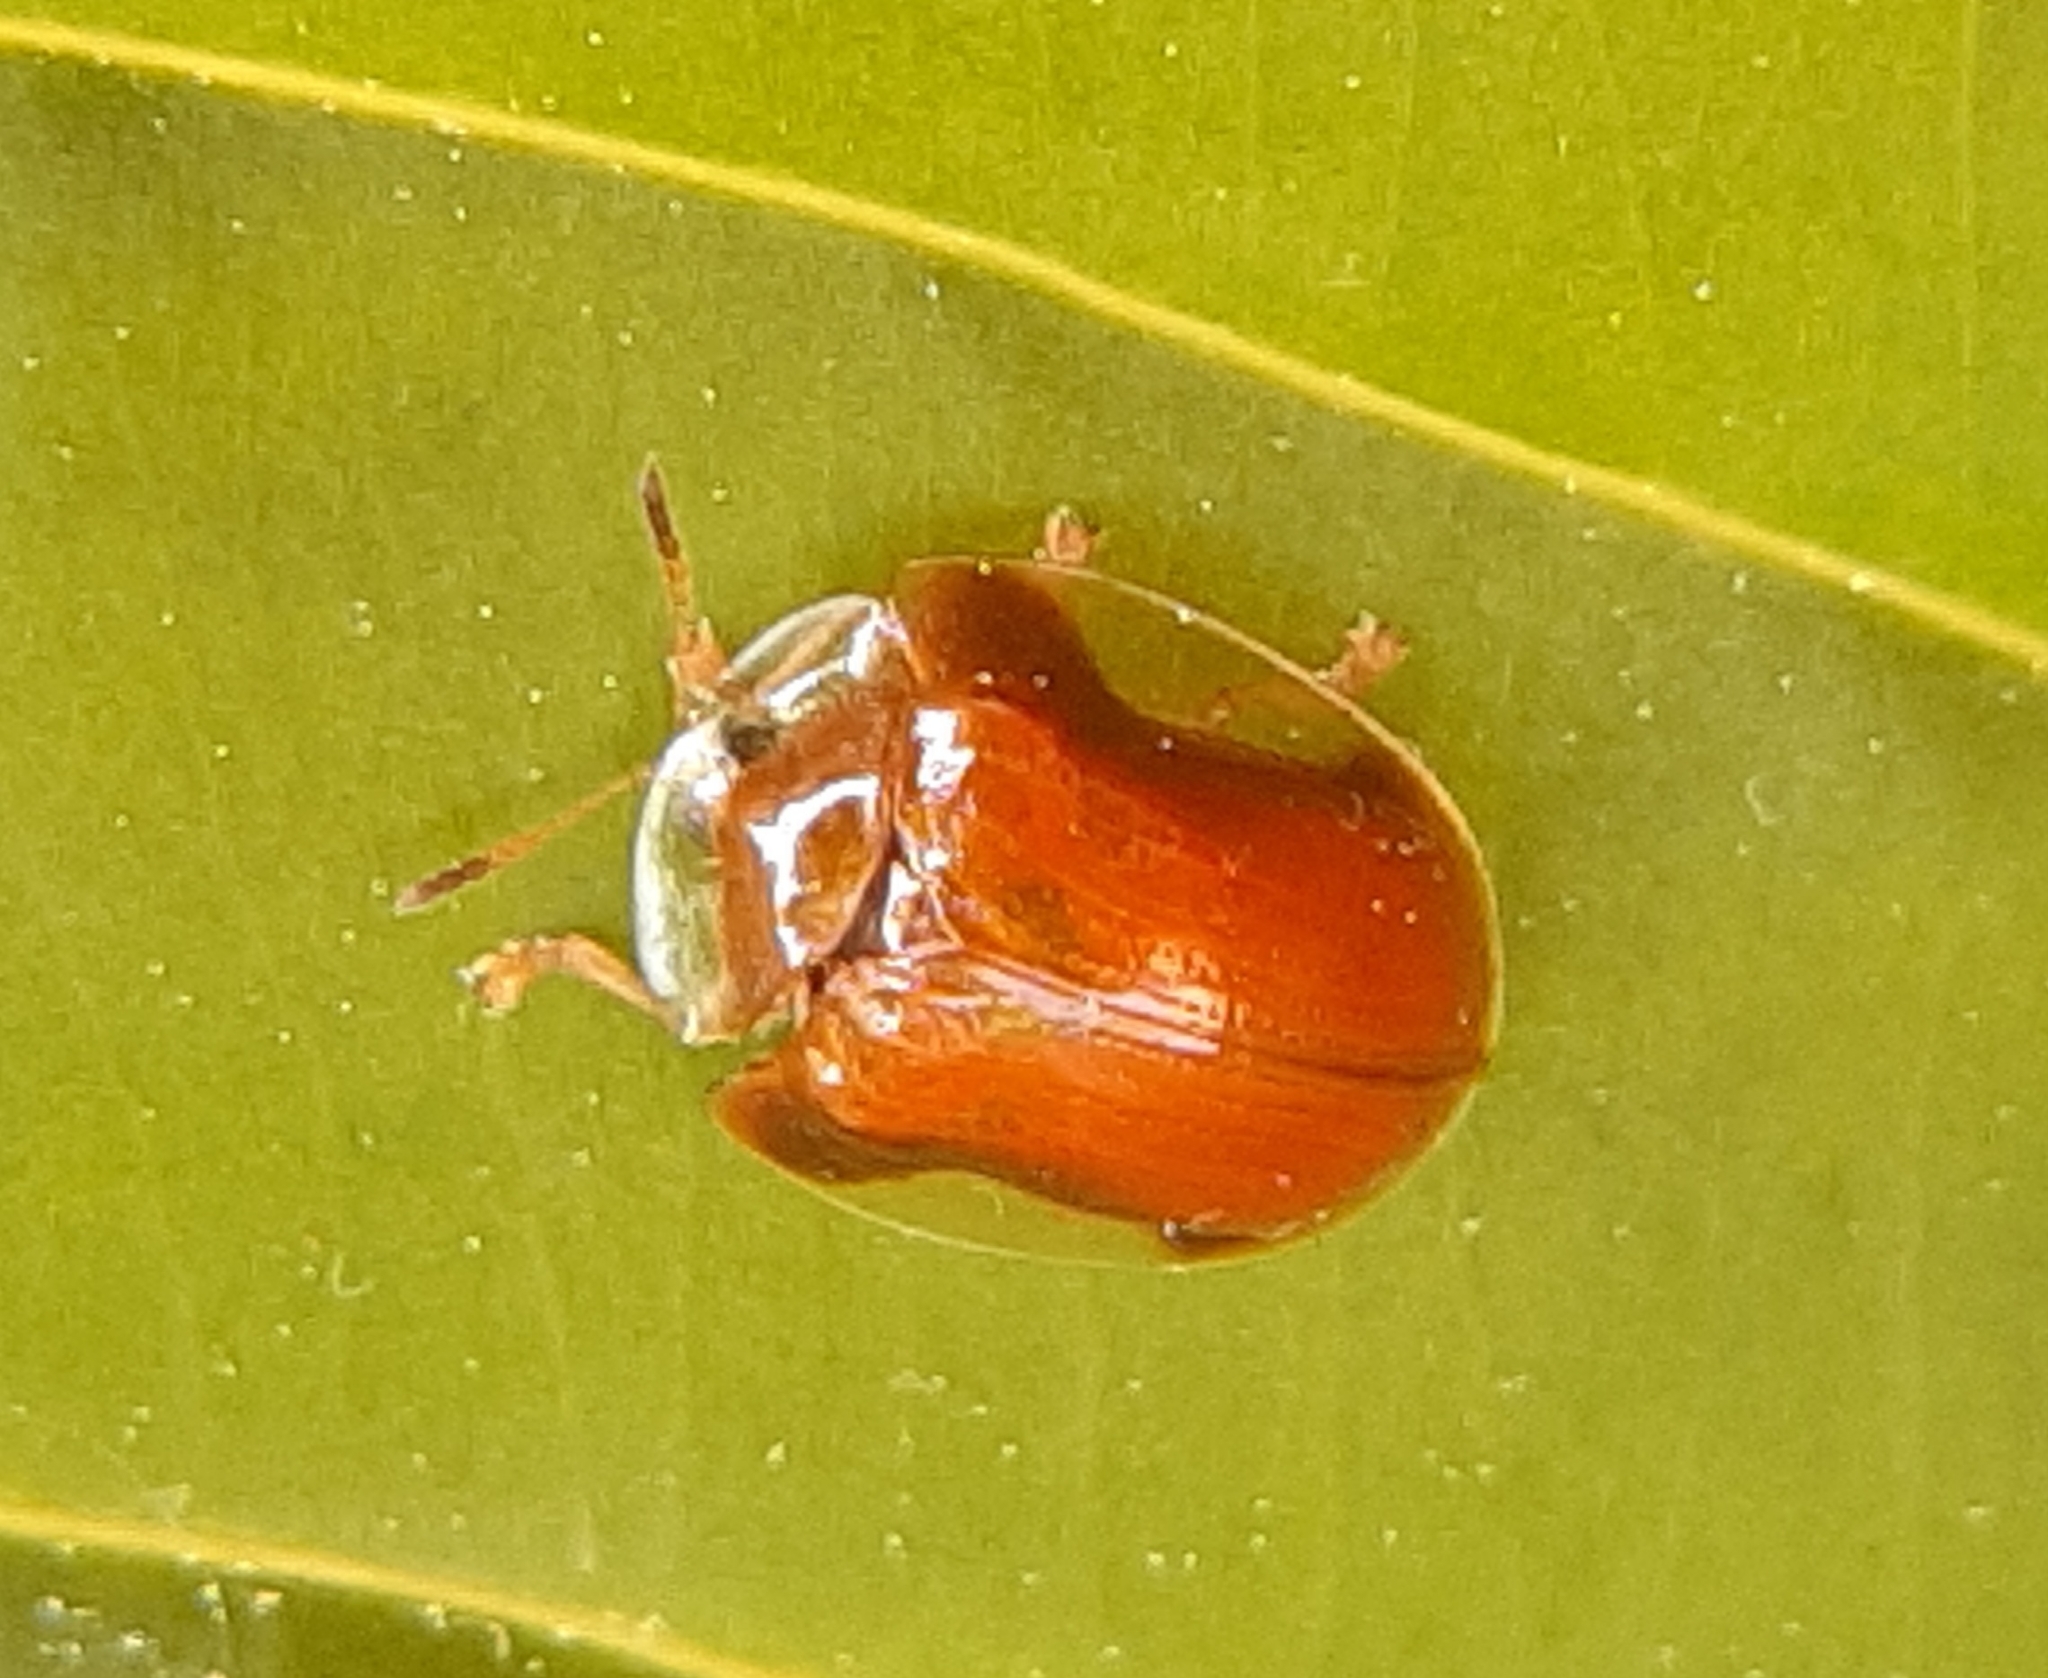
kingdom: Animalia
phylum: Arthropoda
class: Insecta
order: Coleoptera
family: Chrysomelidae
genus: Charidotella
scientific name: Charidotella purpurata
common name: Small orange tortoise beetle
